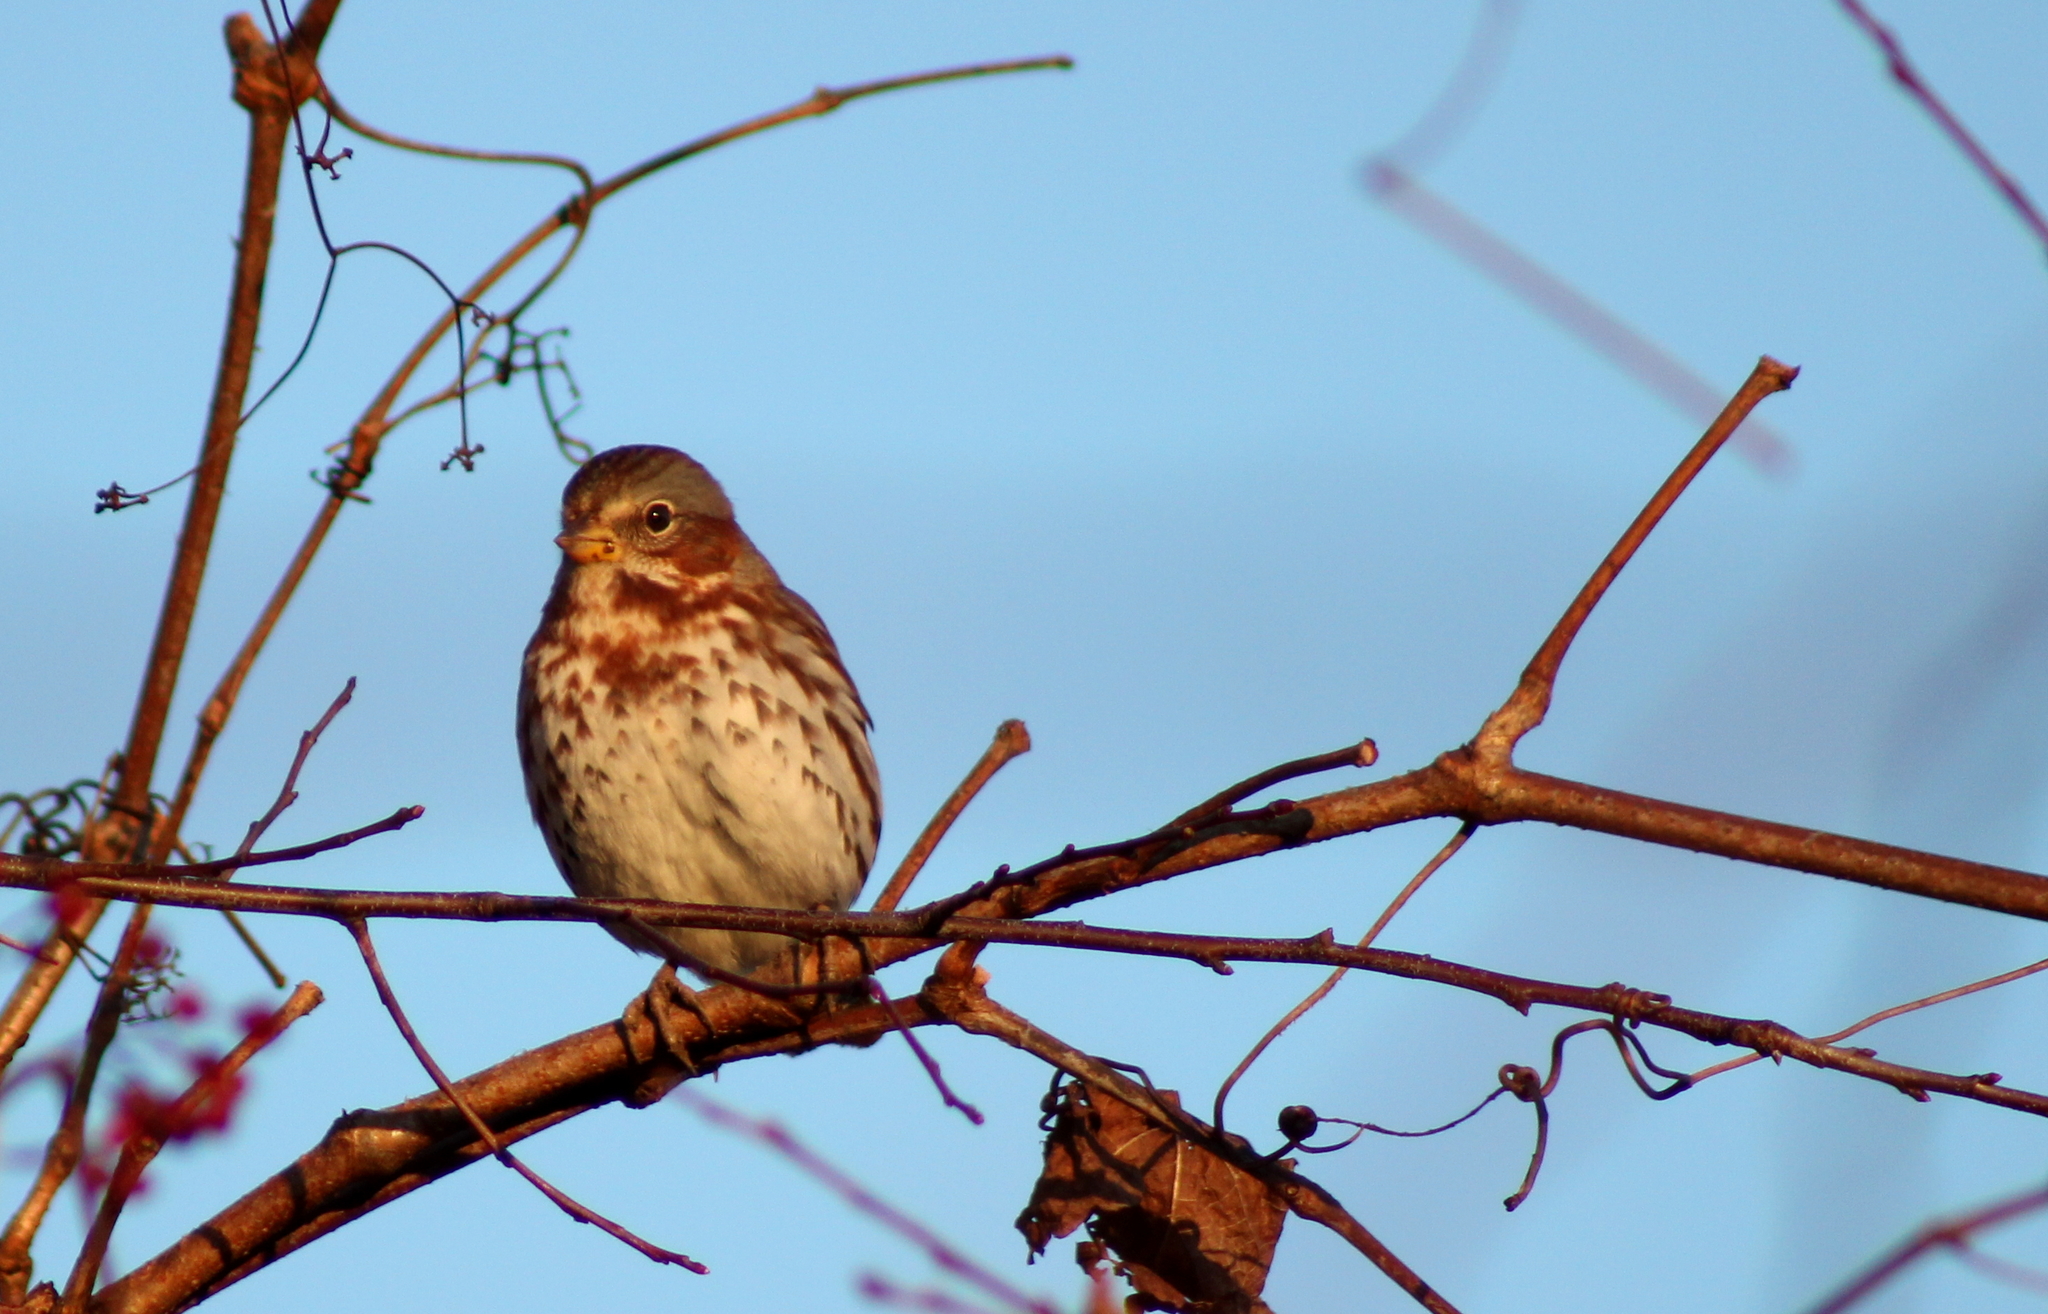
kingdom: Animalia
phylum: Chordata
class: Aves
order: Passeriformes
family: Passerellidae
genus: Passerella
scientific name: Passerella iliaca
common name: Fox sparrow
